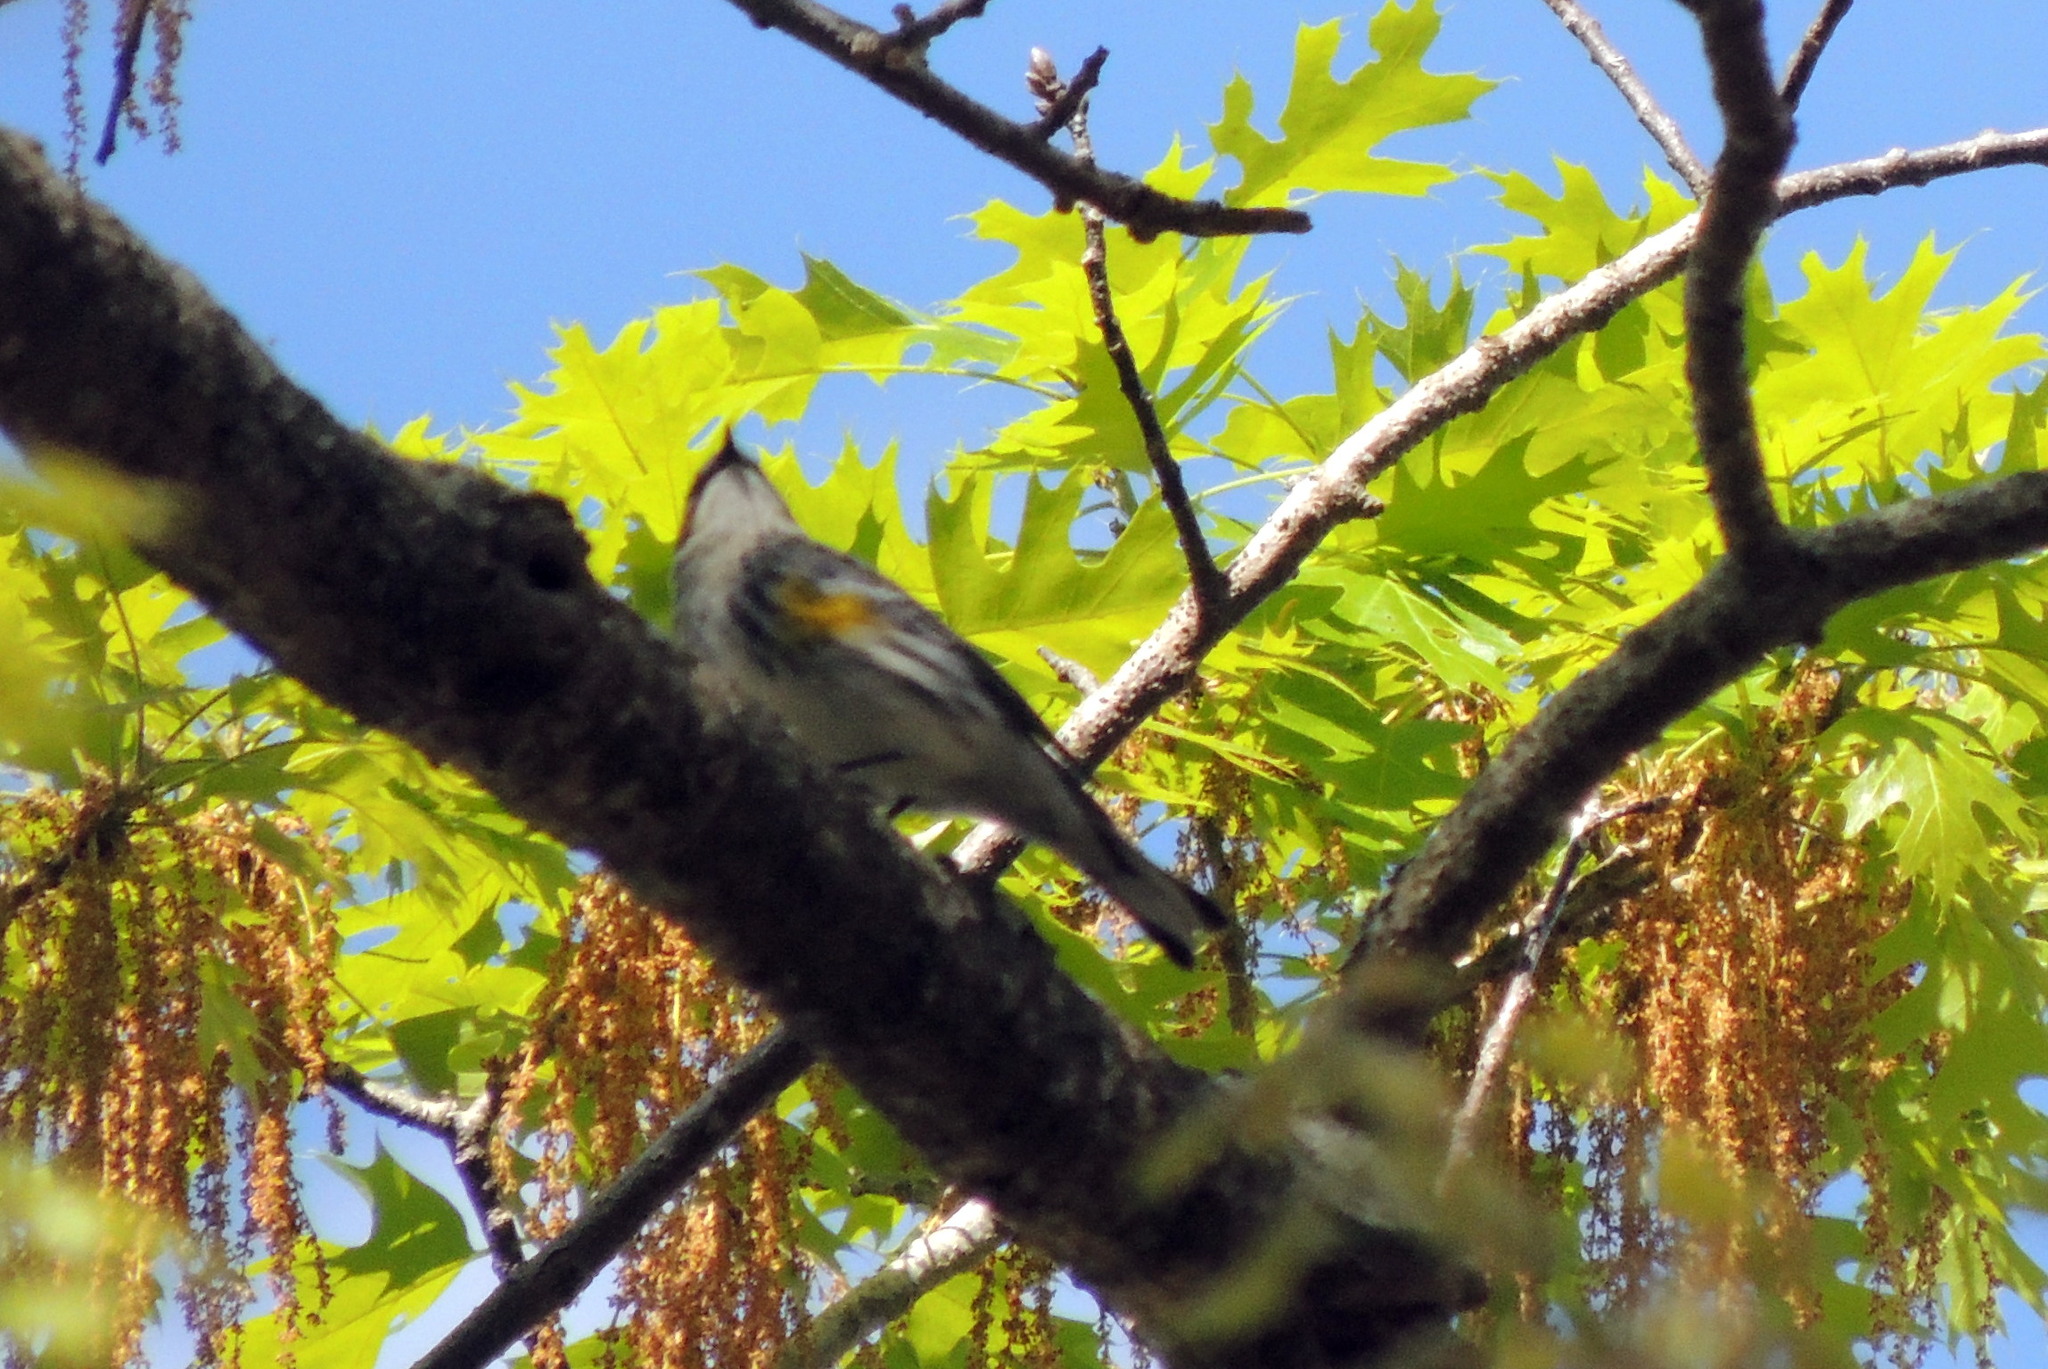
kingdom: Animalia
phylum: Chordata
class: Aves
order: Passeriformes
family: Parulidae
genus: Setophaga
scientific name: Setophaga coronata
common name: Myrtle warbler
